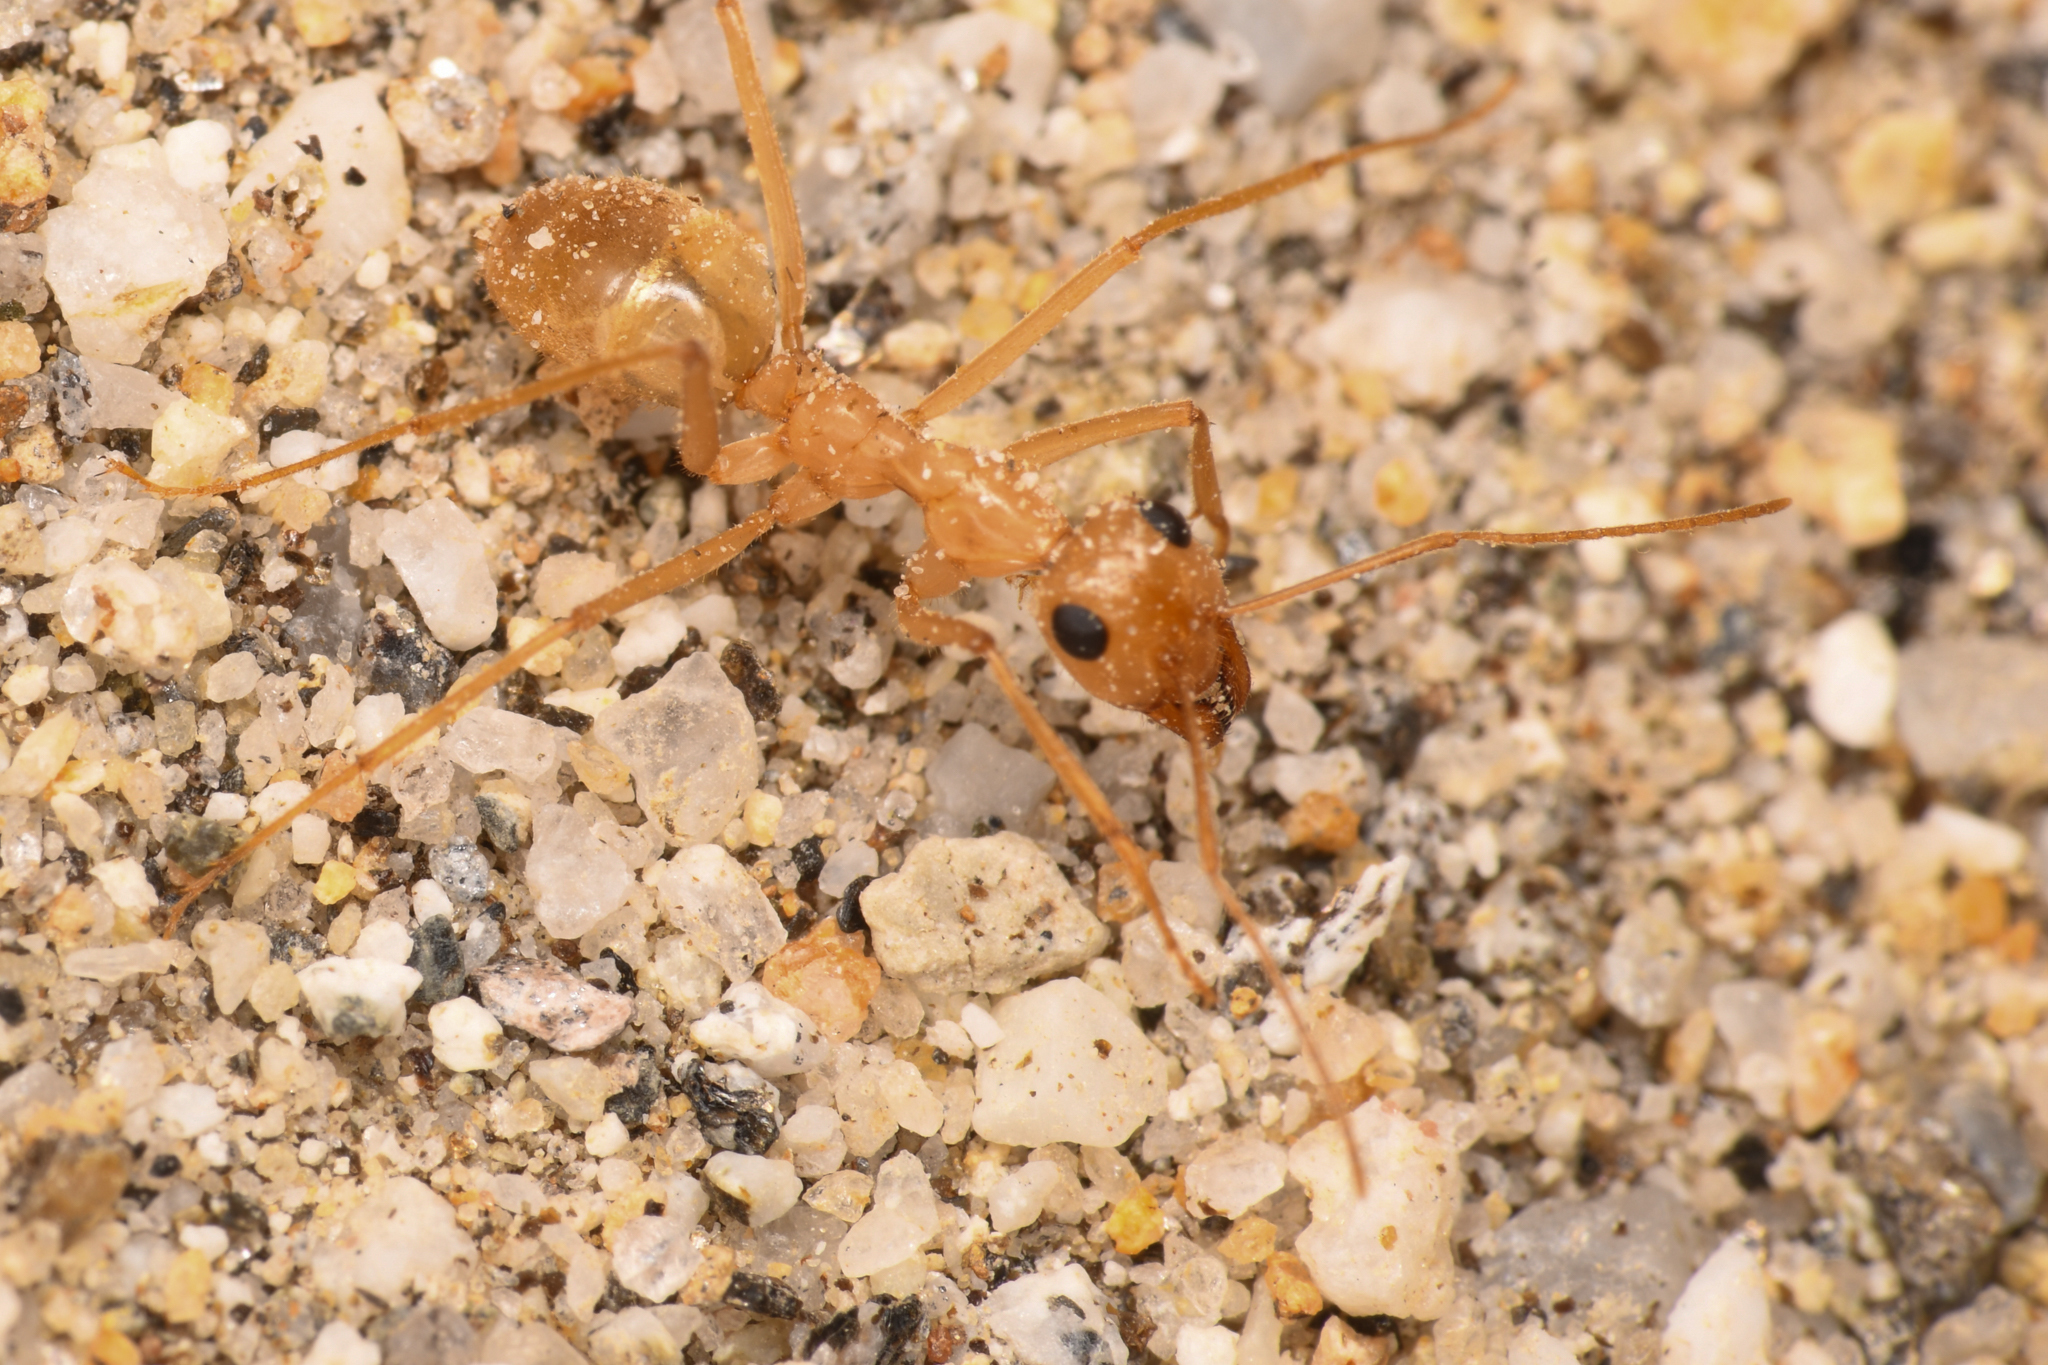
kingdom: Animalia
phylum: Arthropoda
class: Insecta
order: Hymenoptera
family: Formicidae
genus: Myrmecocystus
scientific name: Myrmecocystus mexicanus
